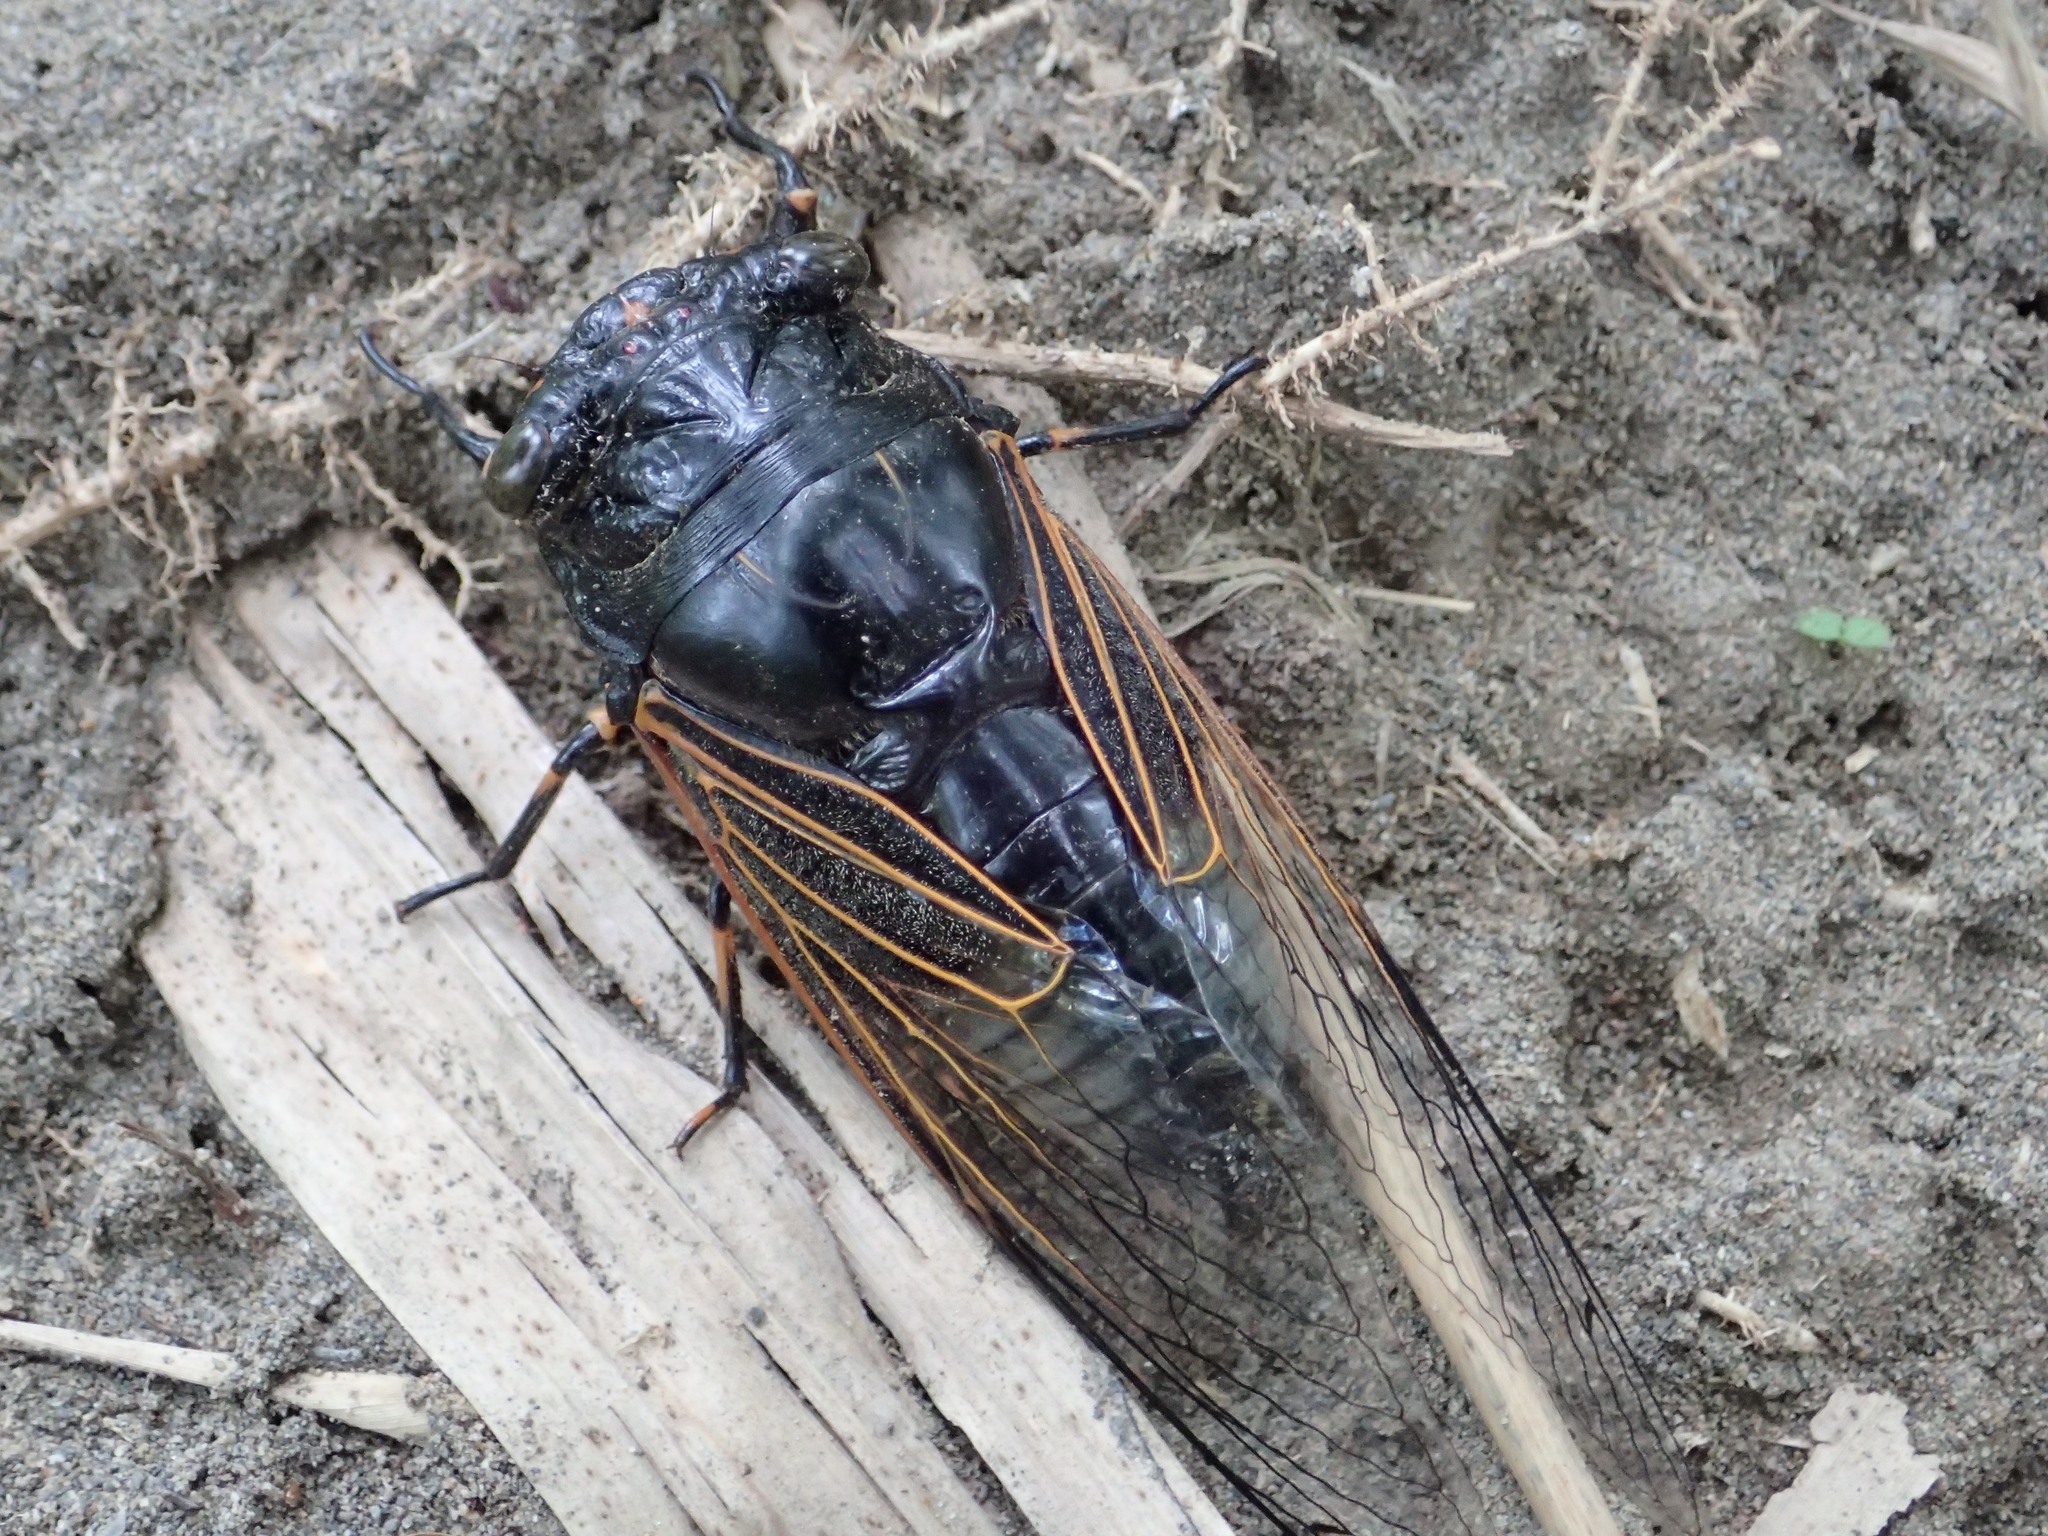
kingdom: Animalia
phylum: Arthropoda
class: Insecta
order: Hemiptera
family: Cicadidae
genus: Cryptotympana
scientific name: Cryptotympana atrata
